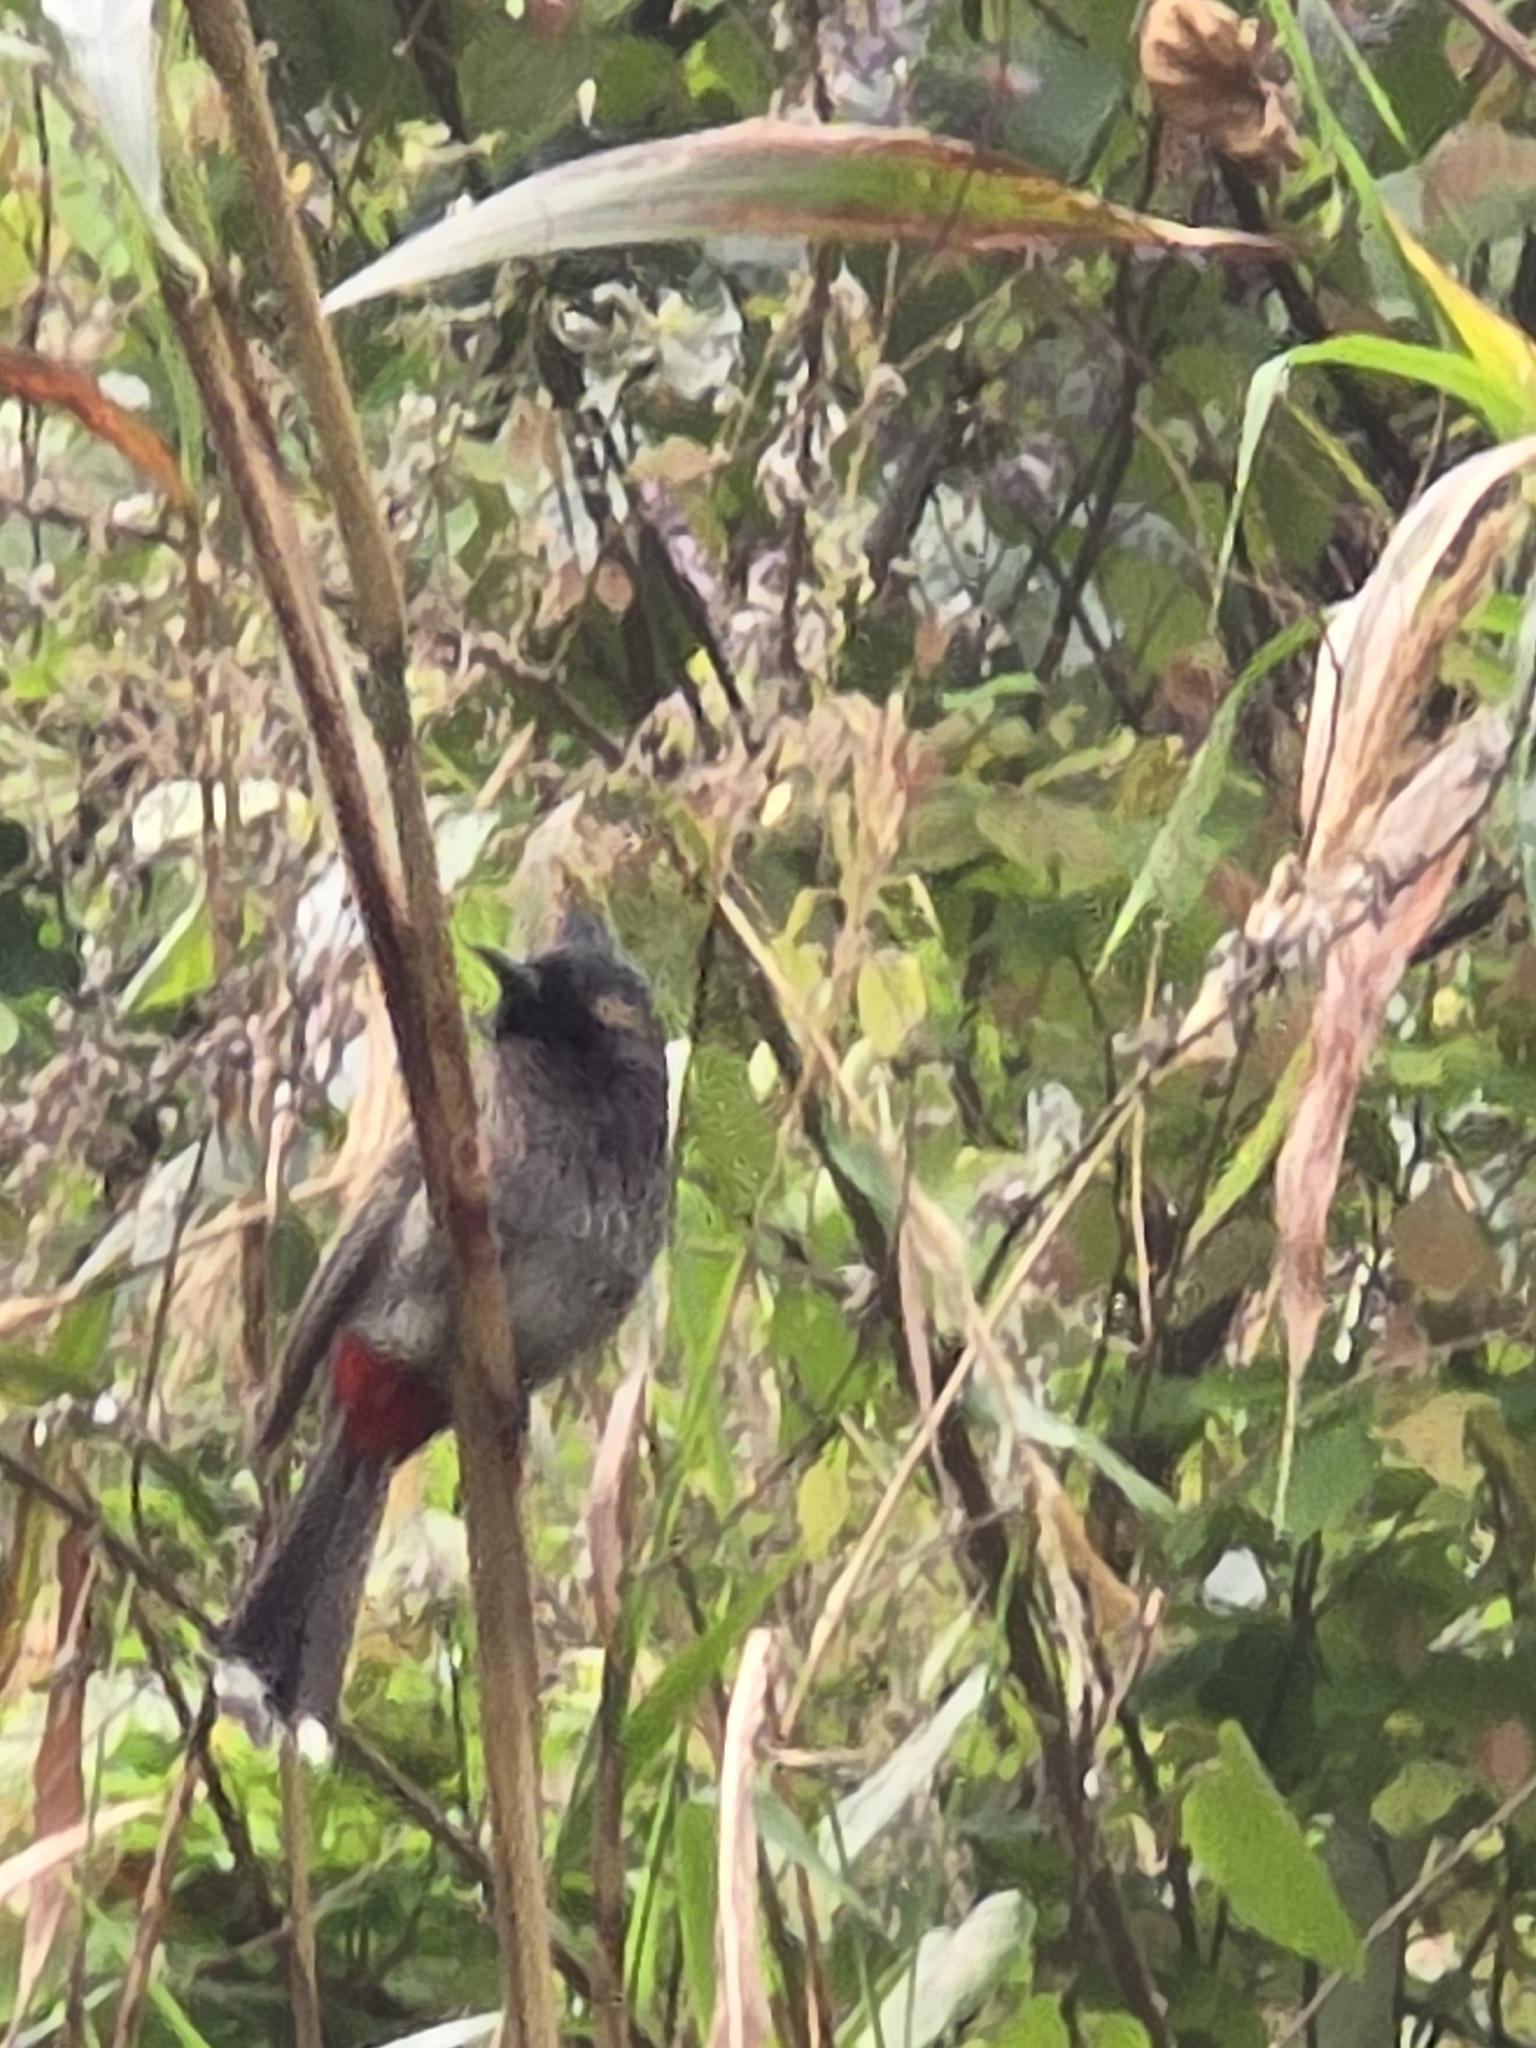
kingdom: Animalia
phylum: Chordata
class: Aves
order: Passeriformes
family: Pycnonotidae
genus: Pycnonotus
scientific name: Pycnonotus cafer
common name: Red-vented bulbul
